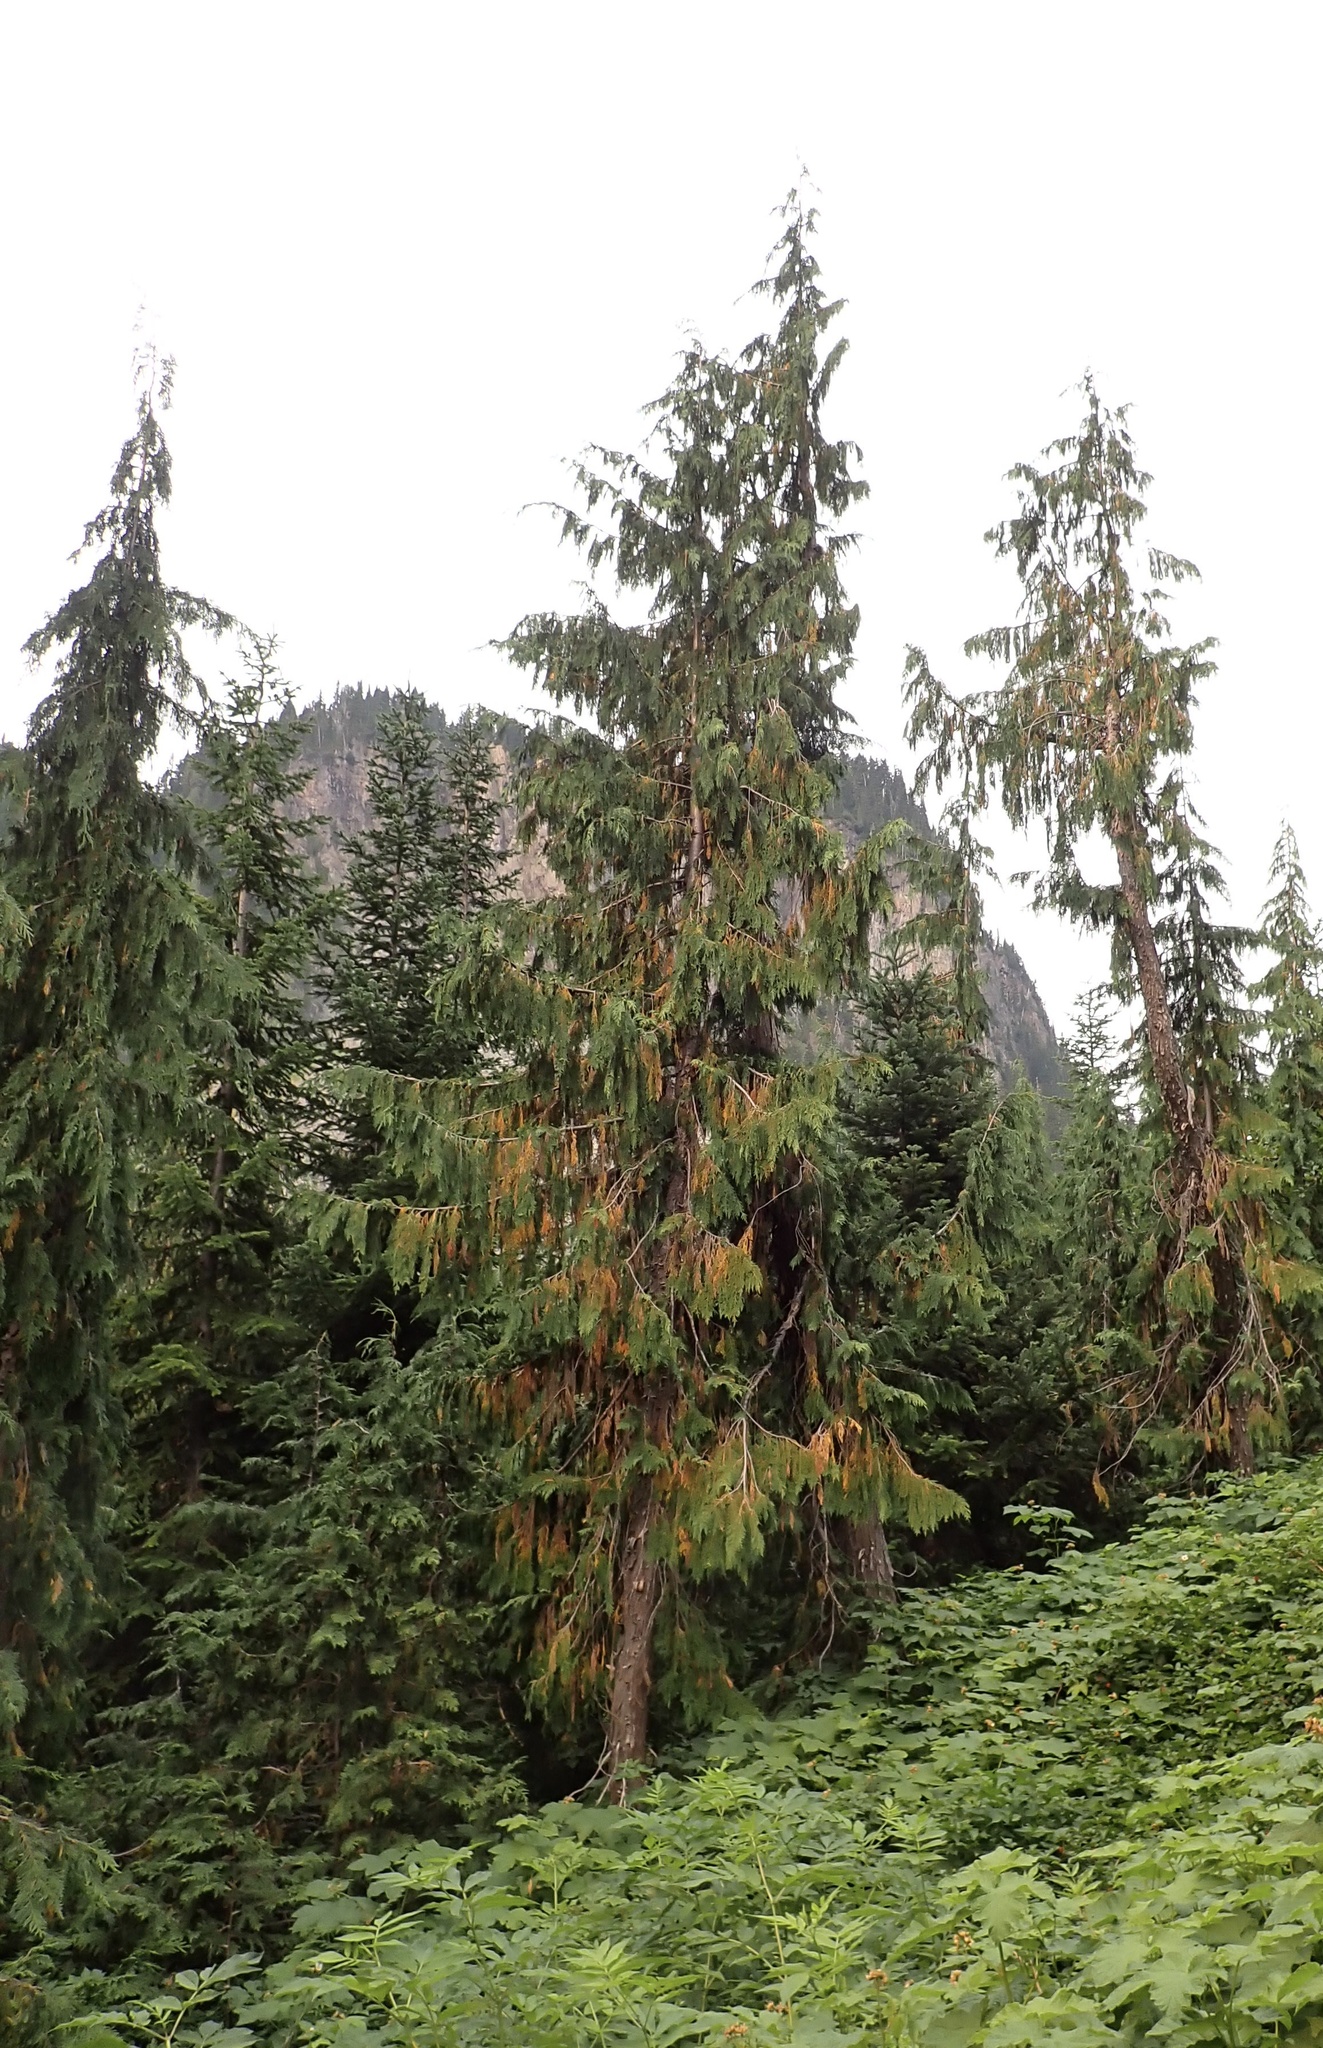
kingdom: Plantae
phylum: Tracheophyta
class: Pinopsida
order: Pinales
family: Cupressaceae
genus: Xanthocyparis
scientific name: Xanthocyparis nootkatensis
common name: Nootka cypress
